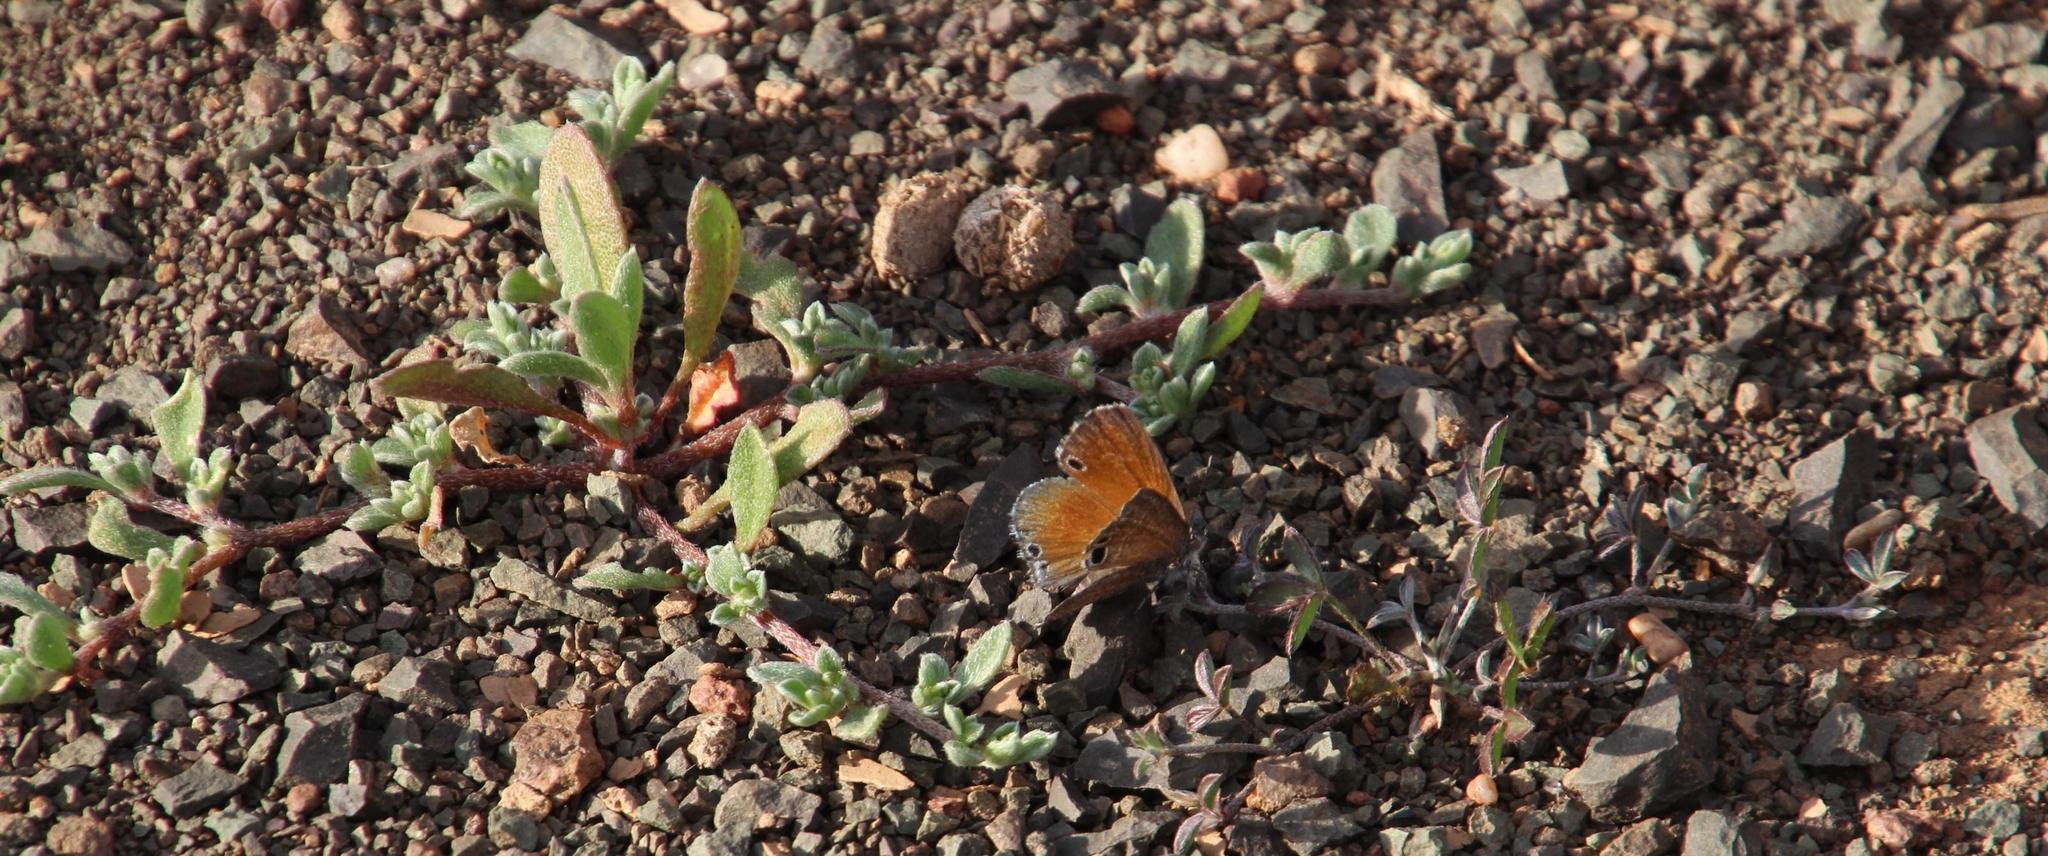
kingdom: Animalia
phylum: Arthropoda
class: Insecta
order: Lepidoptera
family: Lycaenidae
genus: Leptomyrina
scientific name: Leptomyrina lara
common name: Cape black-eye
